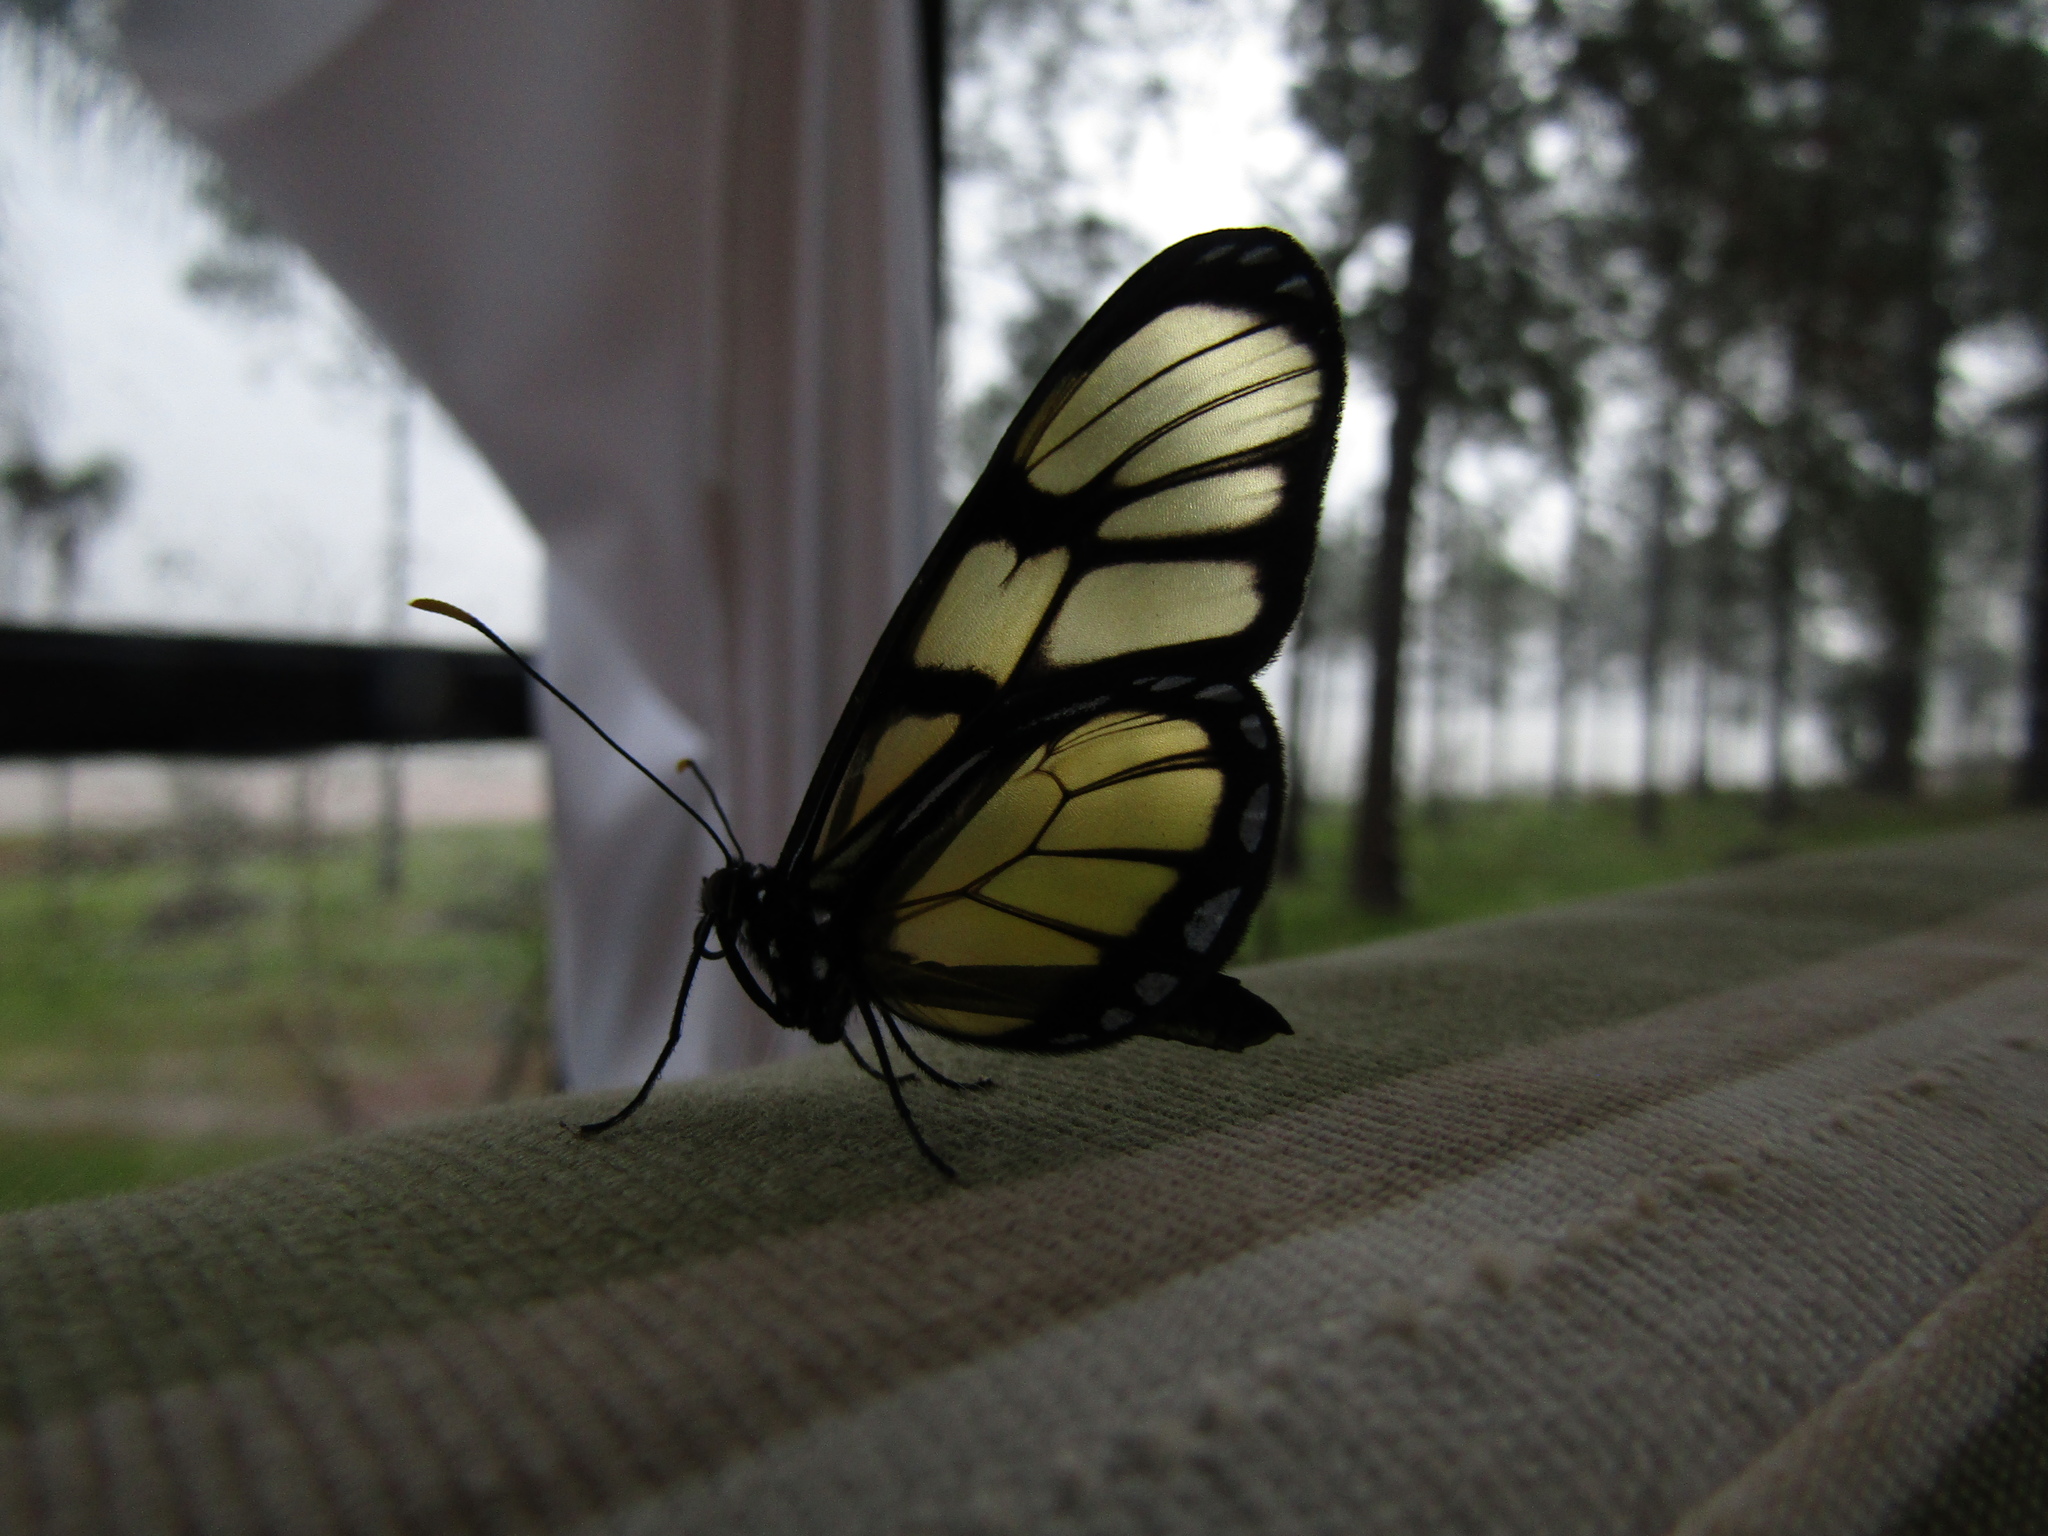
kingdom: Animalia
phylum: Arthropoda
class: Insecta
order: Lepidoptera
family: Nymphalidae
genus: Dircenna
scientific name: Dircenna dero
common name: Dero clearwing
